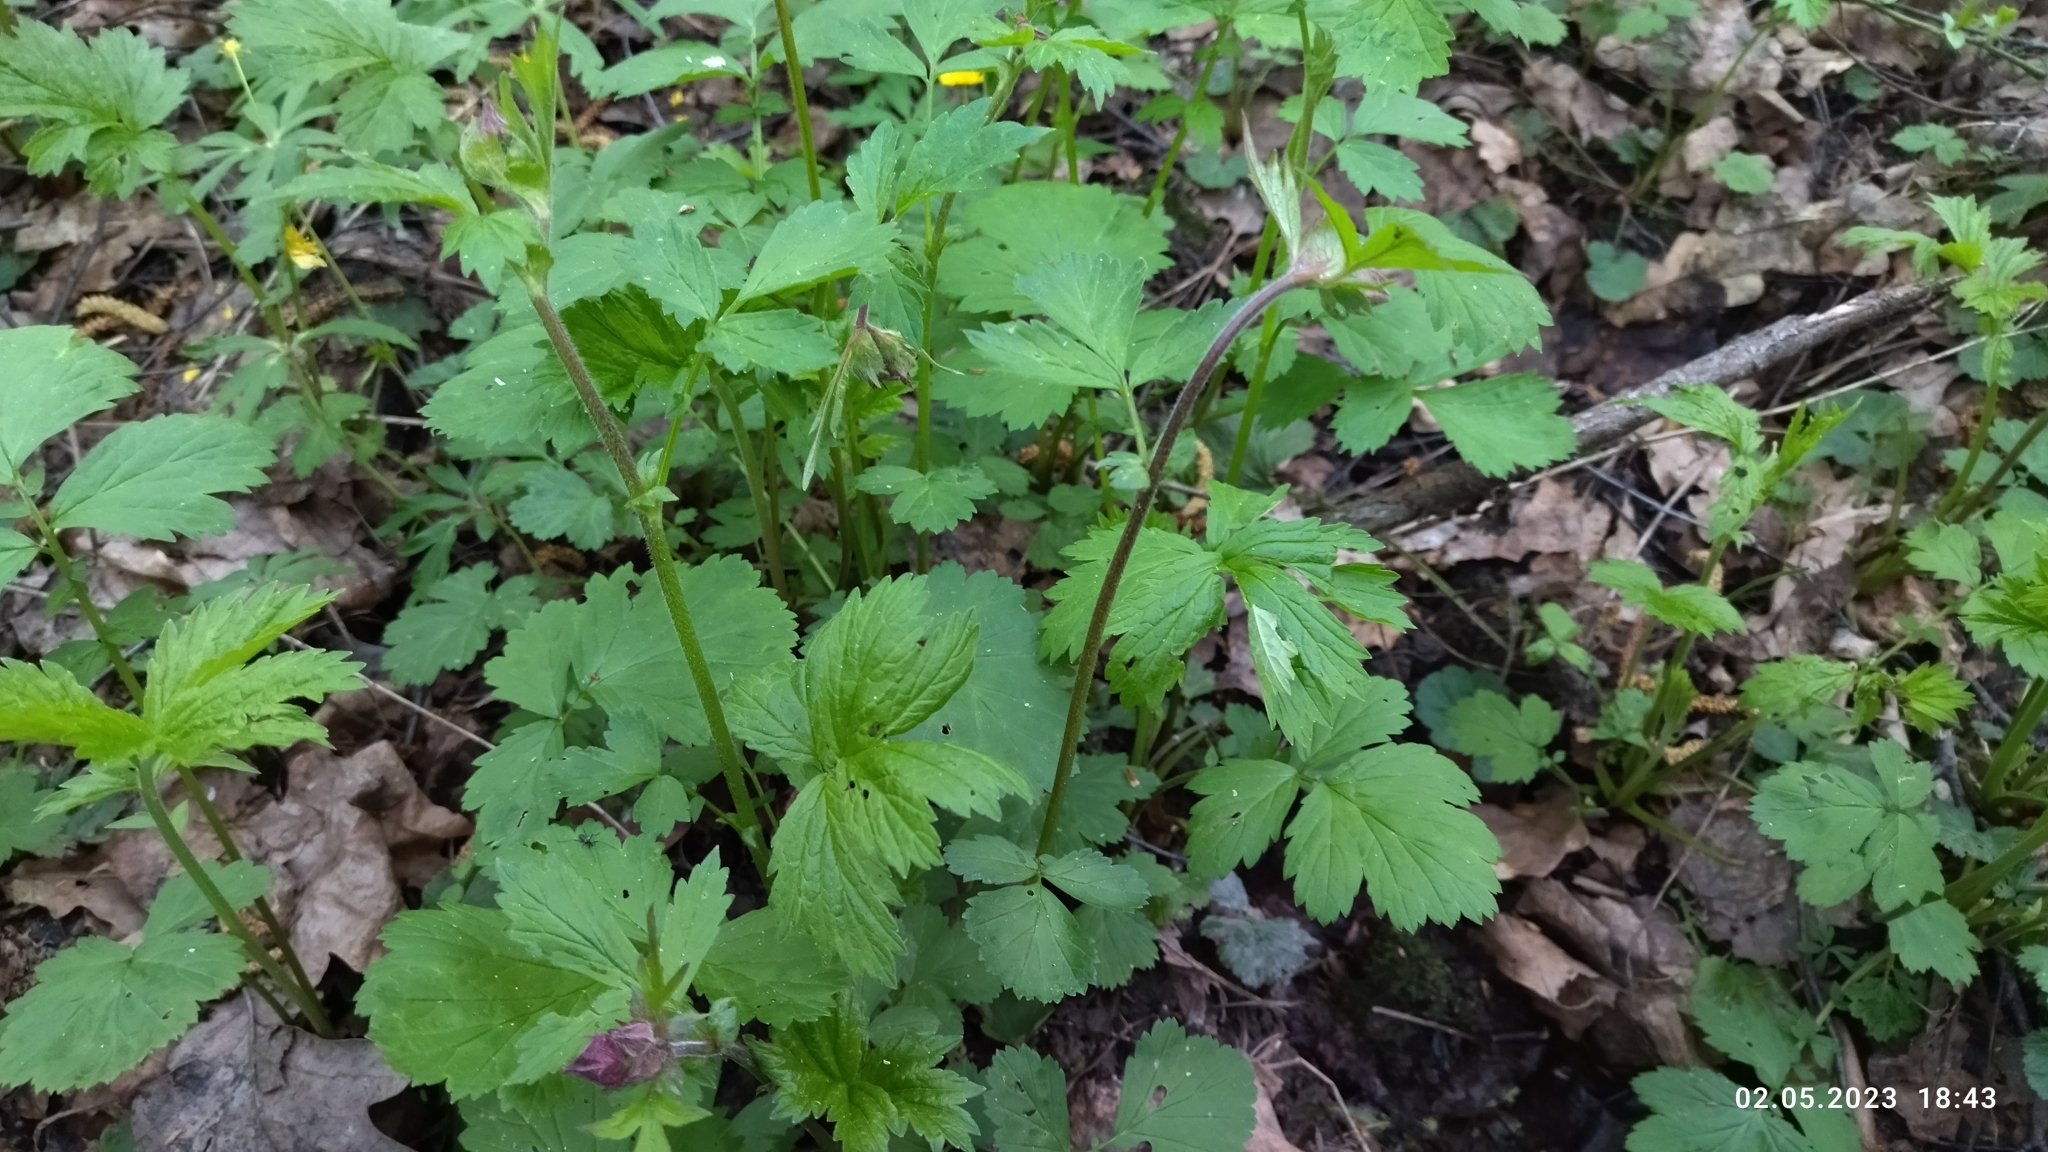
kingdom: Plantae
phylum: Tracheophyta
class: Magnoliopsida
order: Rosales
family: Rosaceae
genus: Geum
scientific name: Geum rivale
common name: Water avens
